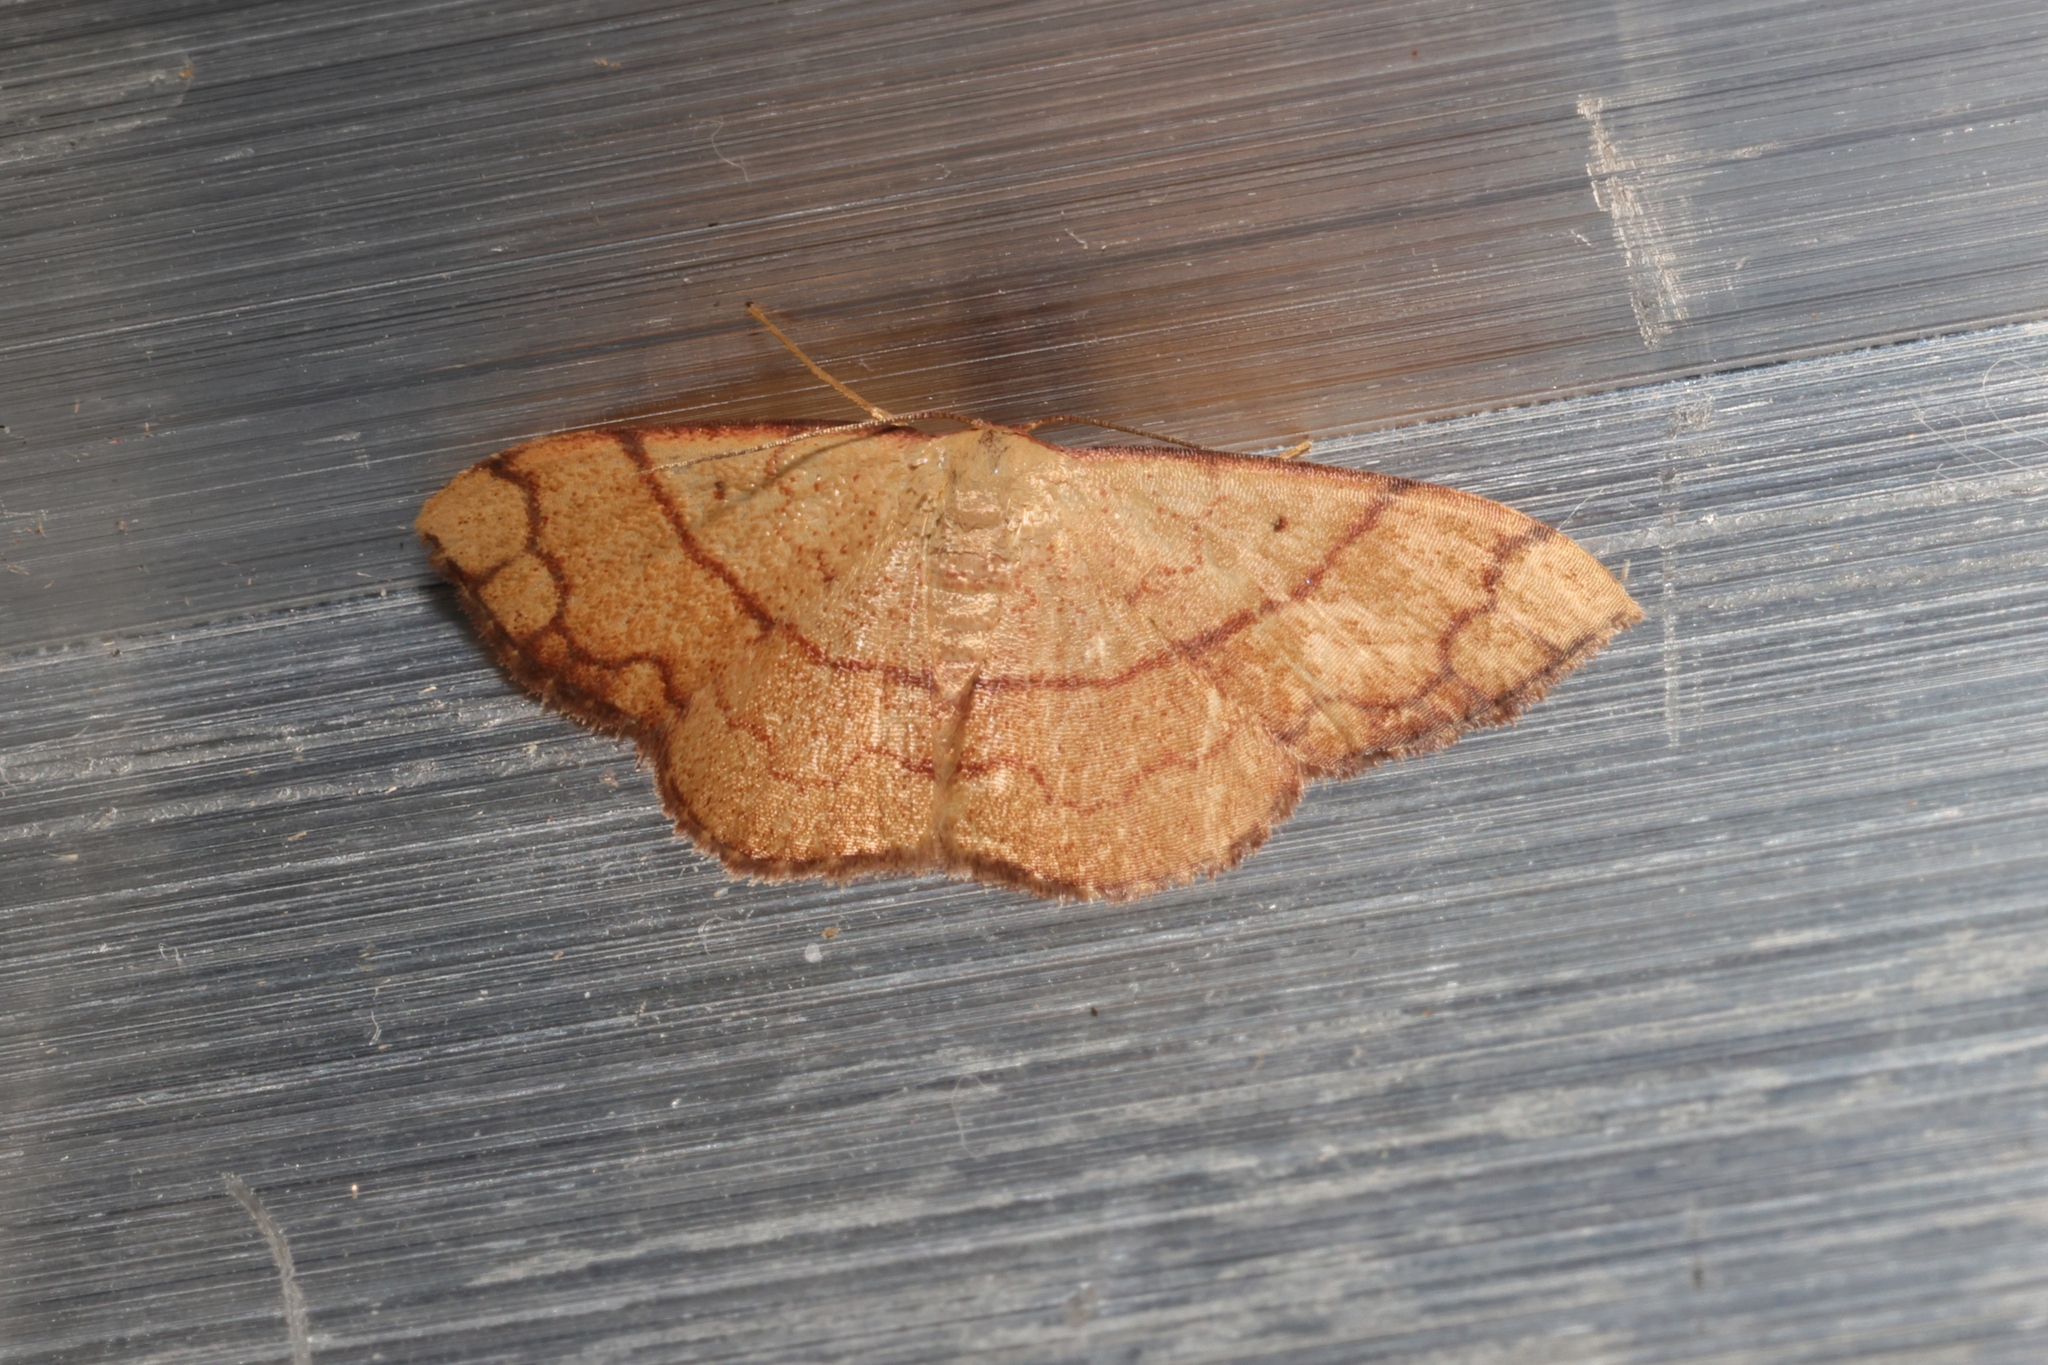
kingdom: Animalia
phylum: Arthropoda
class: Insecta
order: Lepidoptera
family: Geometridae
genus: Pylargosceles
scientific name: Pylargosceles steganioides
